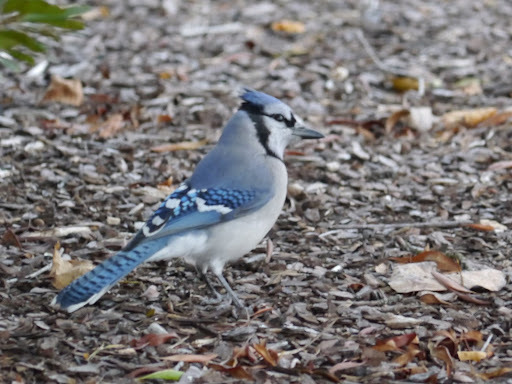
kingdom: Animalia
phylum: Chordata
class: Aves
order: Passeriformes
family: Corvidae
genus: Cyanocitta
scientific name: Cyanocitta cristata
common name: Blue jay
